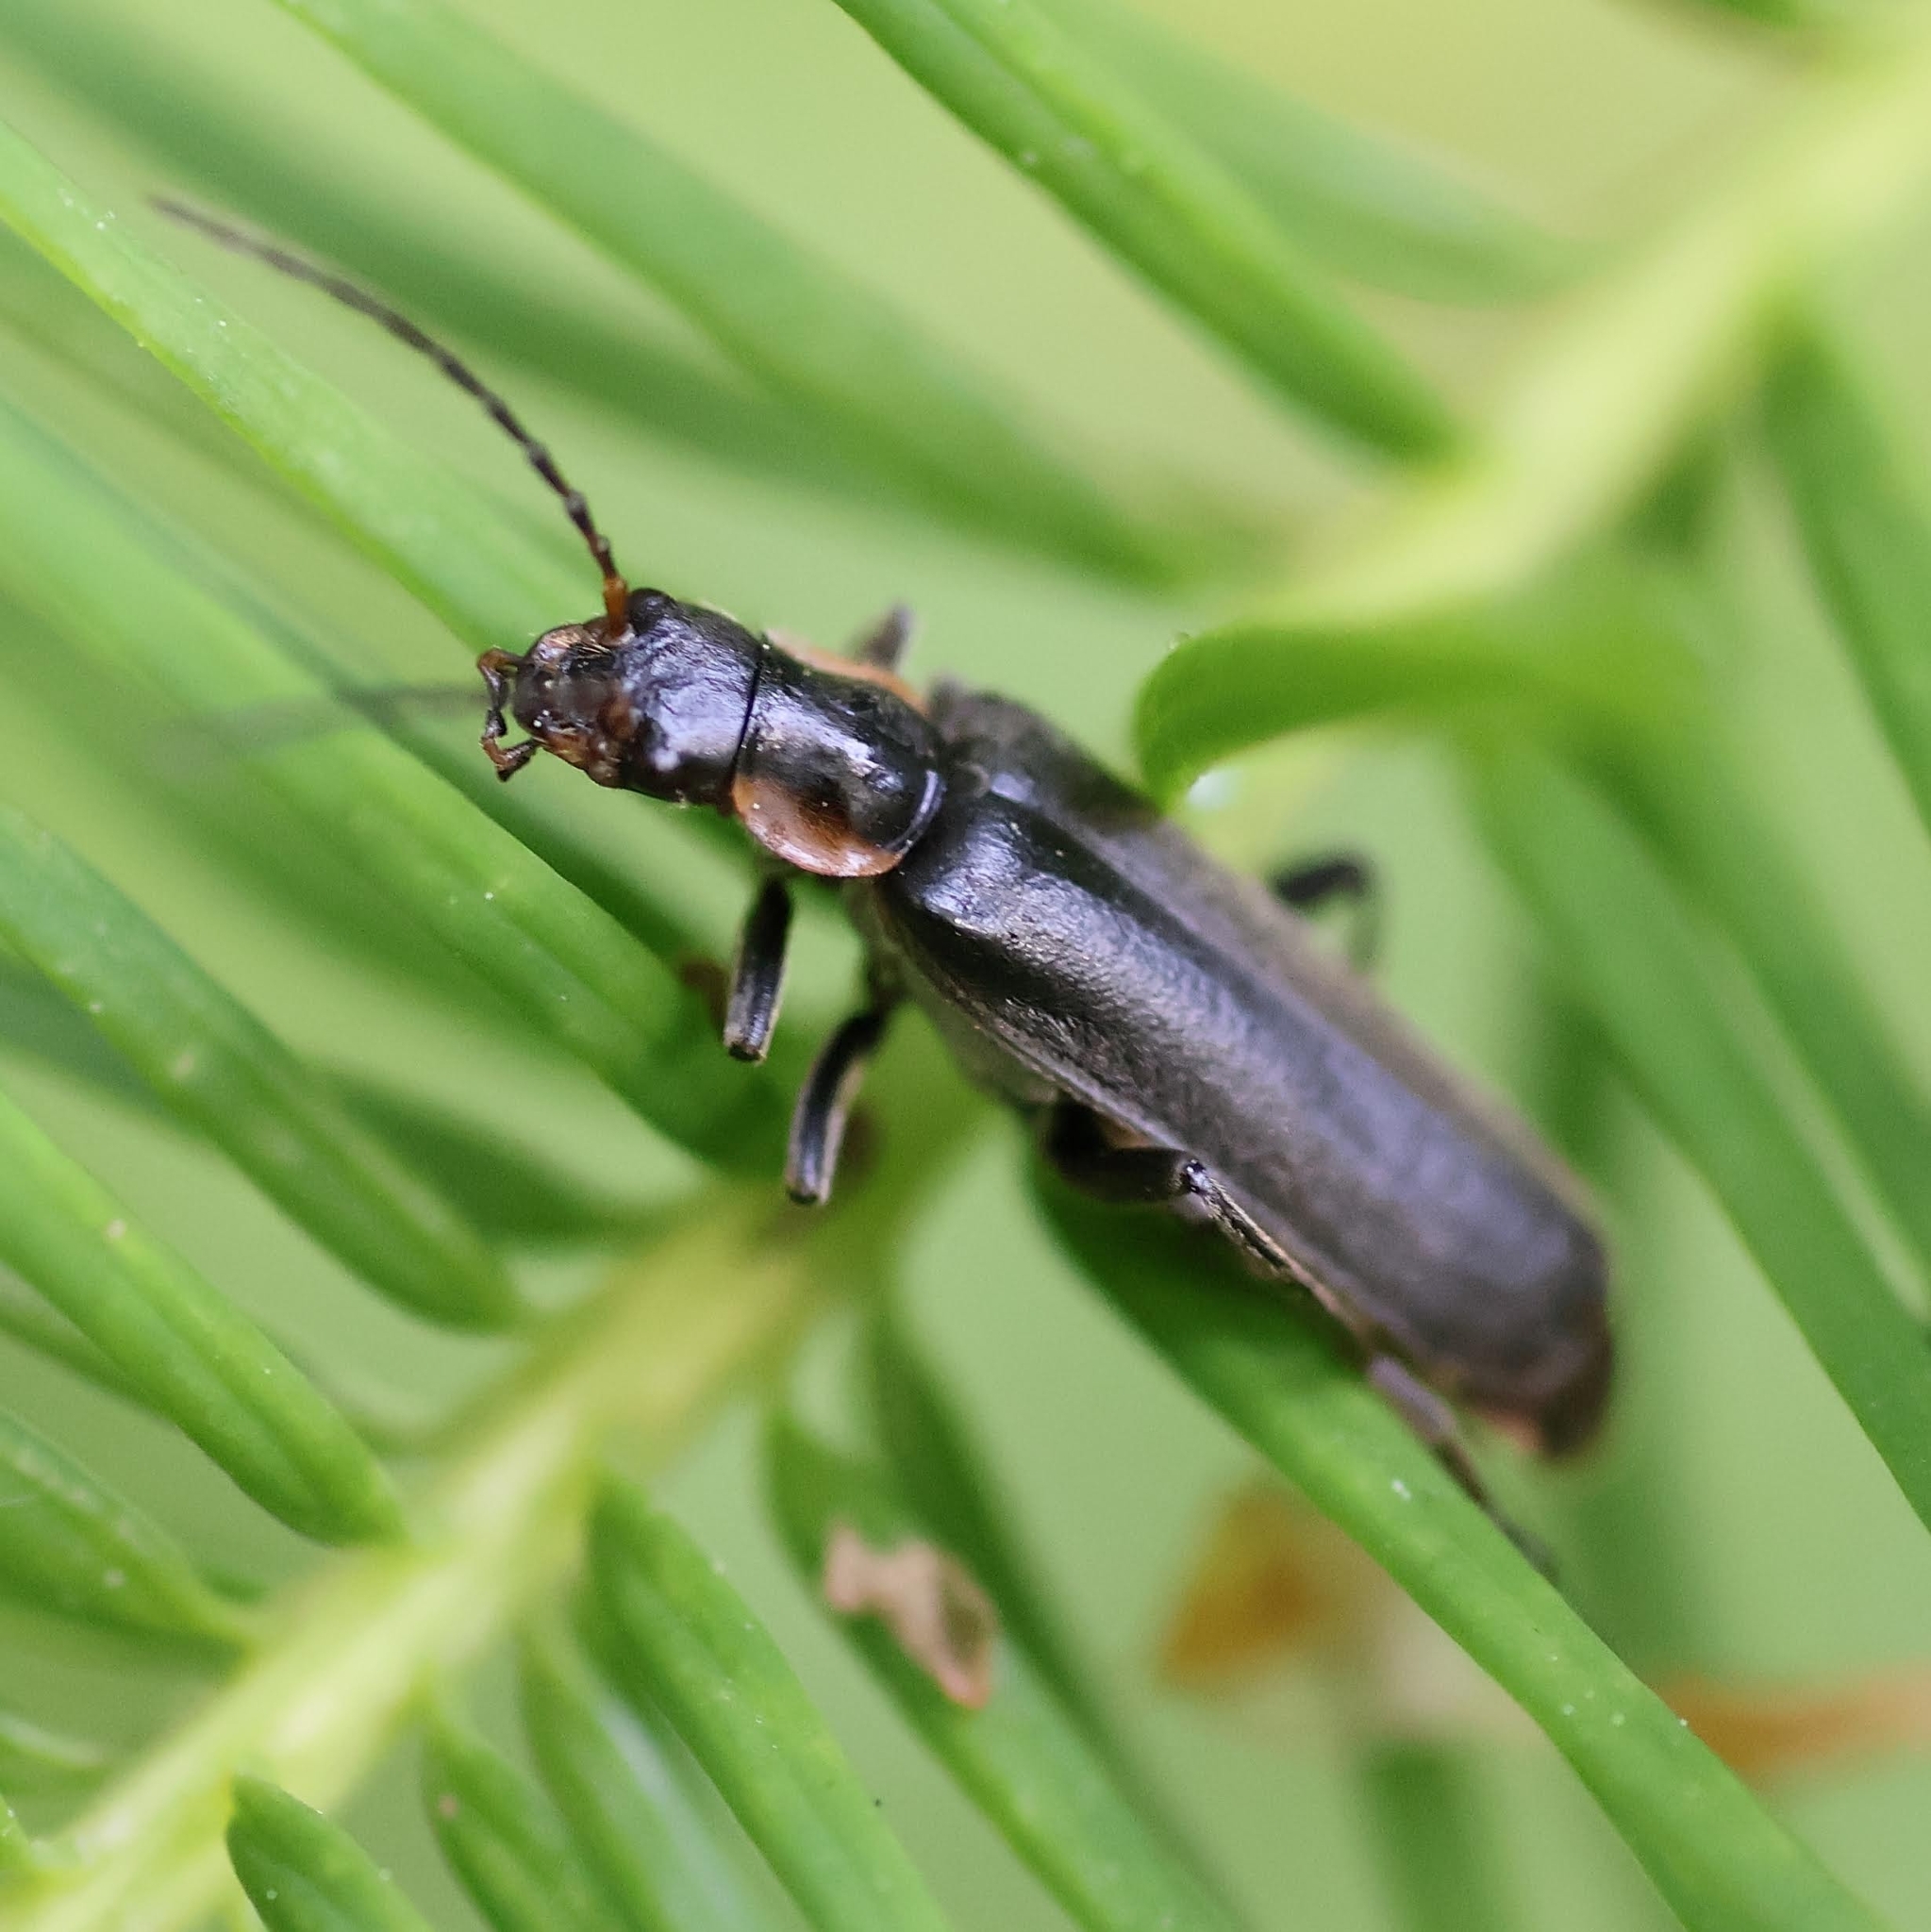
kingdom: Animalia
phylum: Arthropoda
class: Insecta
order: Coleoptera
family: Cantharidae
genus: Cantharis
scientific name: Cantharis obscura
